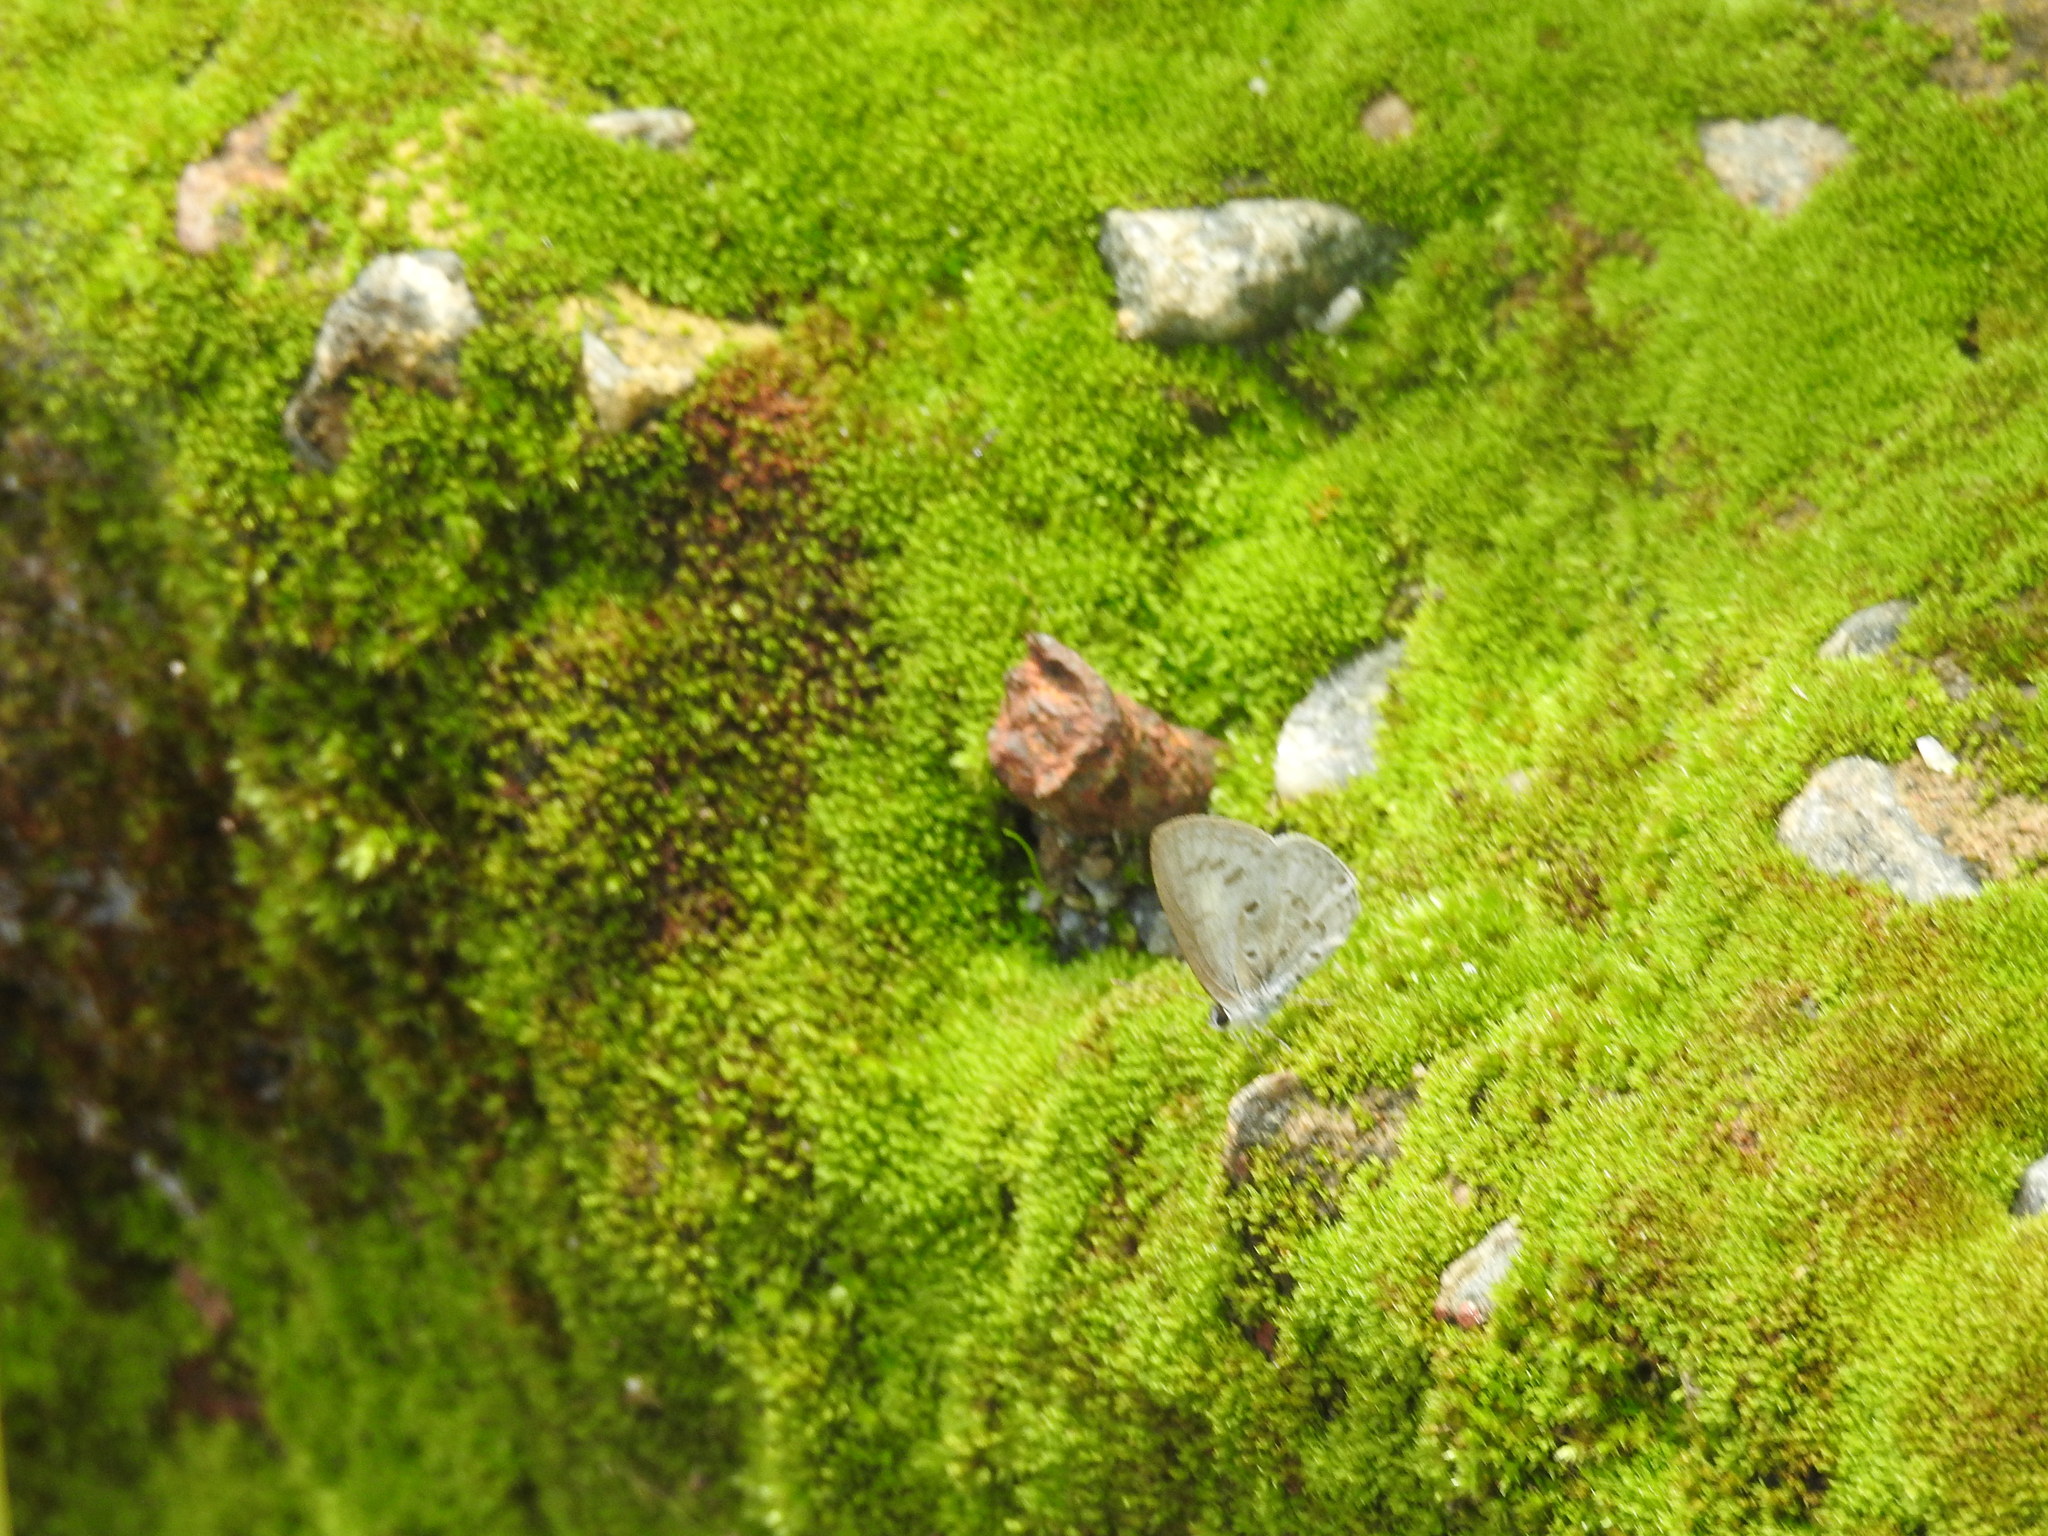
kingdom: Animalia
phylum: Arthropoda
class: Insecta
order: Lepidoptera
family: Lycaenidae
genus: Acytolepis
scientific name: Acytolepis puspa
